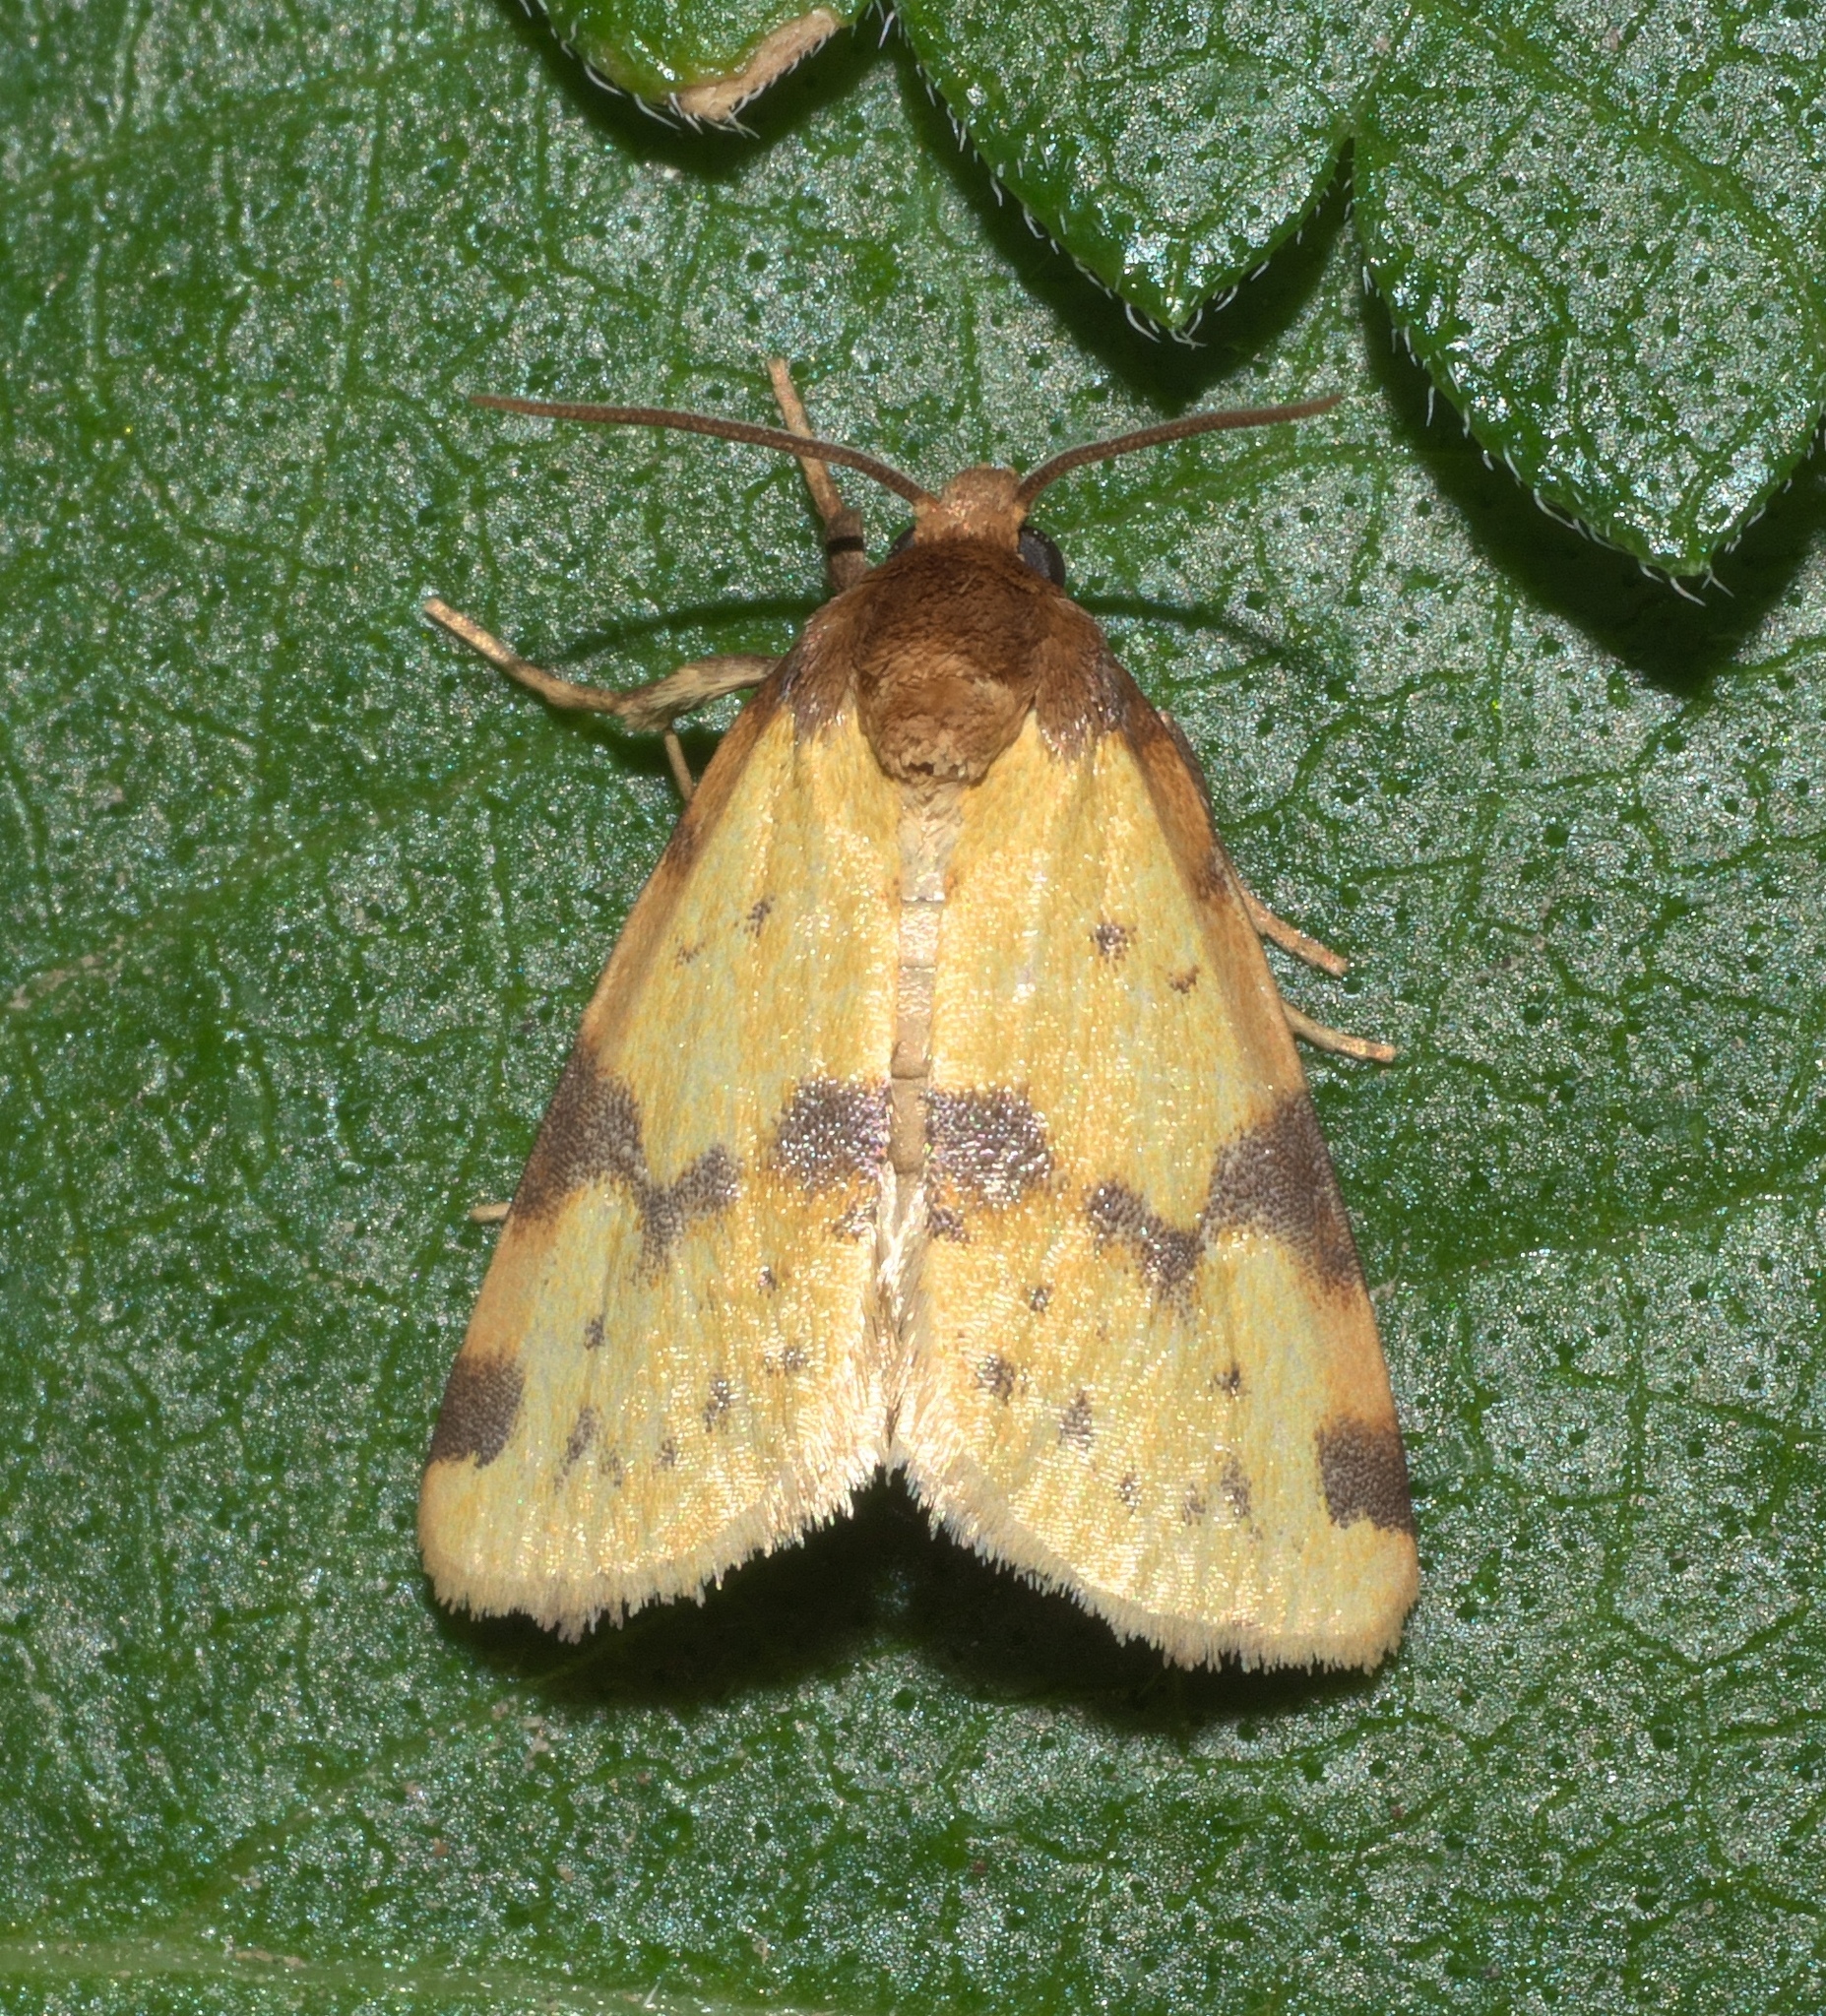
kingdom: Animalia
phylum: Arthropoda
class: Insecta
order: Lepidoptera
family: Noctuidae
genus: Azenia
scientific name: Azenia obtusa
